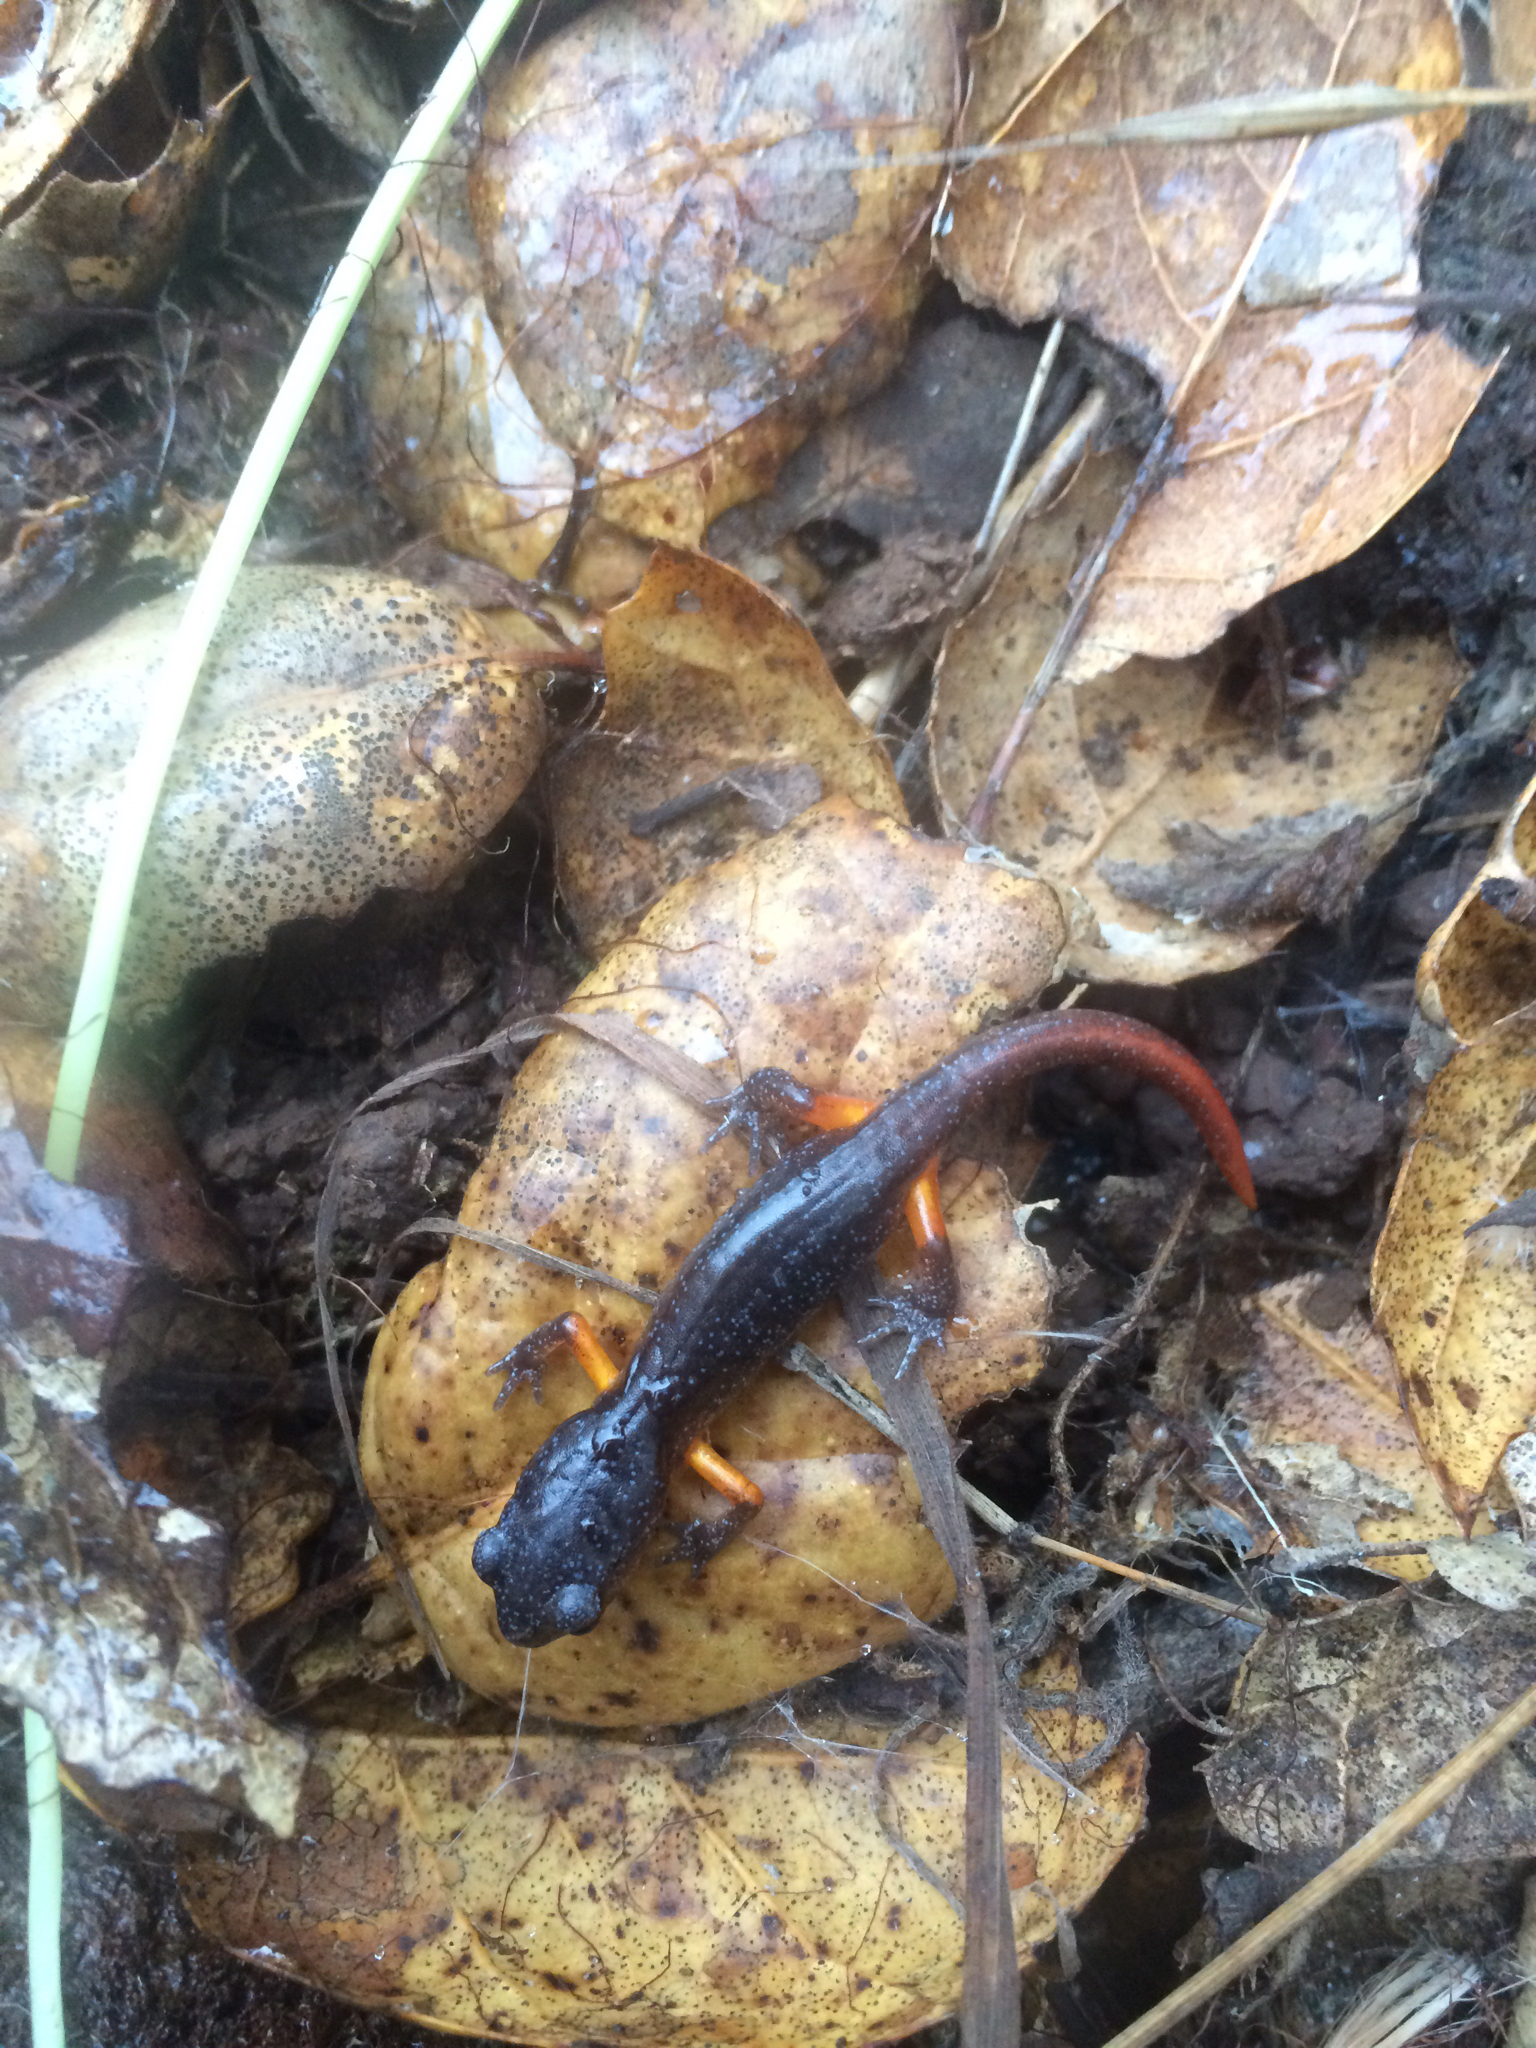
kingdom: Animalia
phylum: Chordata
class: Amphibia
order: Caudata
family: Plethodontidae
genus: Ensatina
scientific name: Ensatina eschscholtzii
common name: Ensatina
